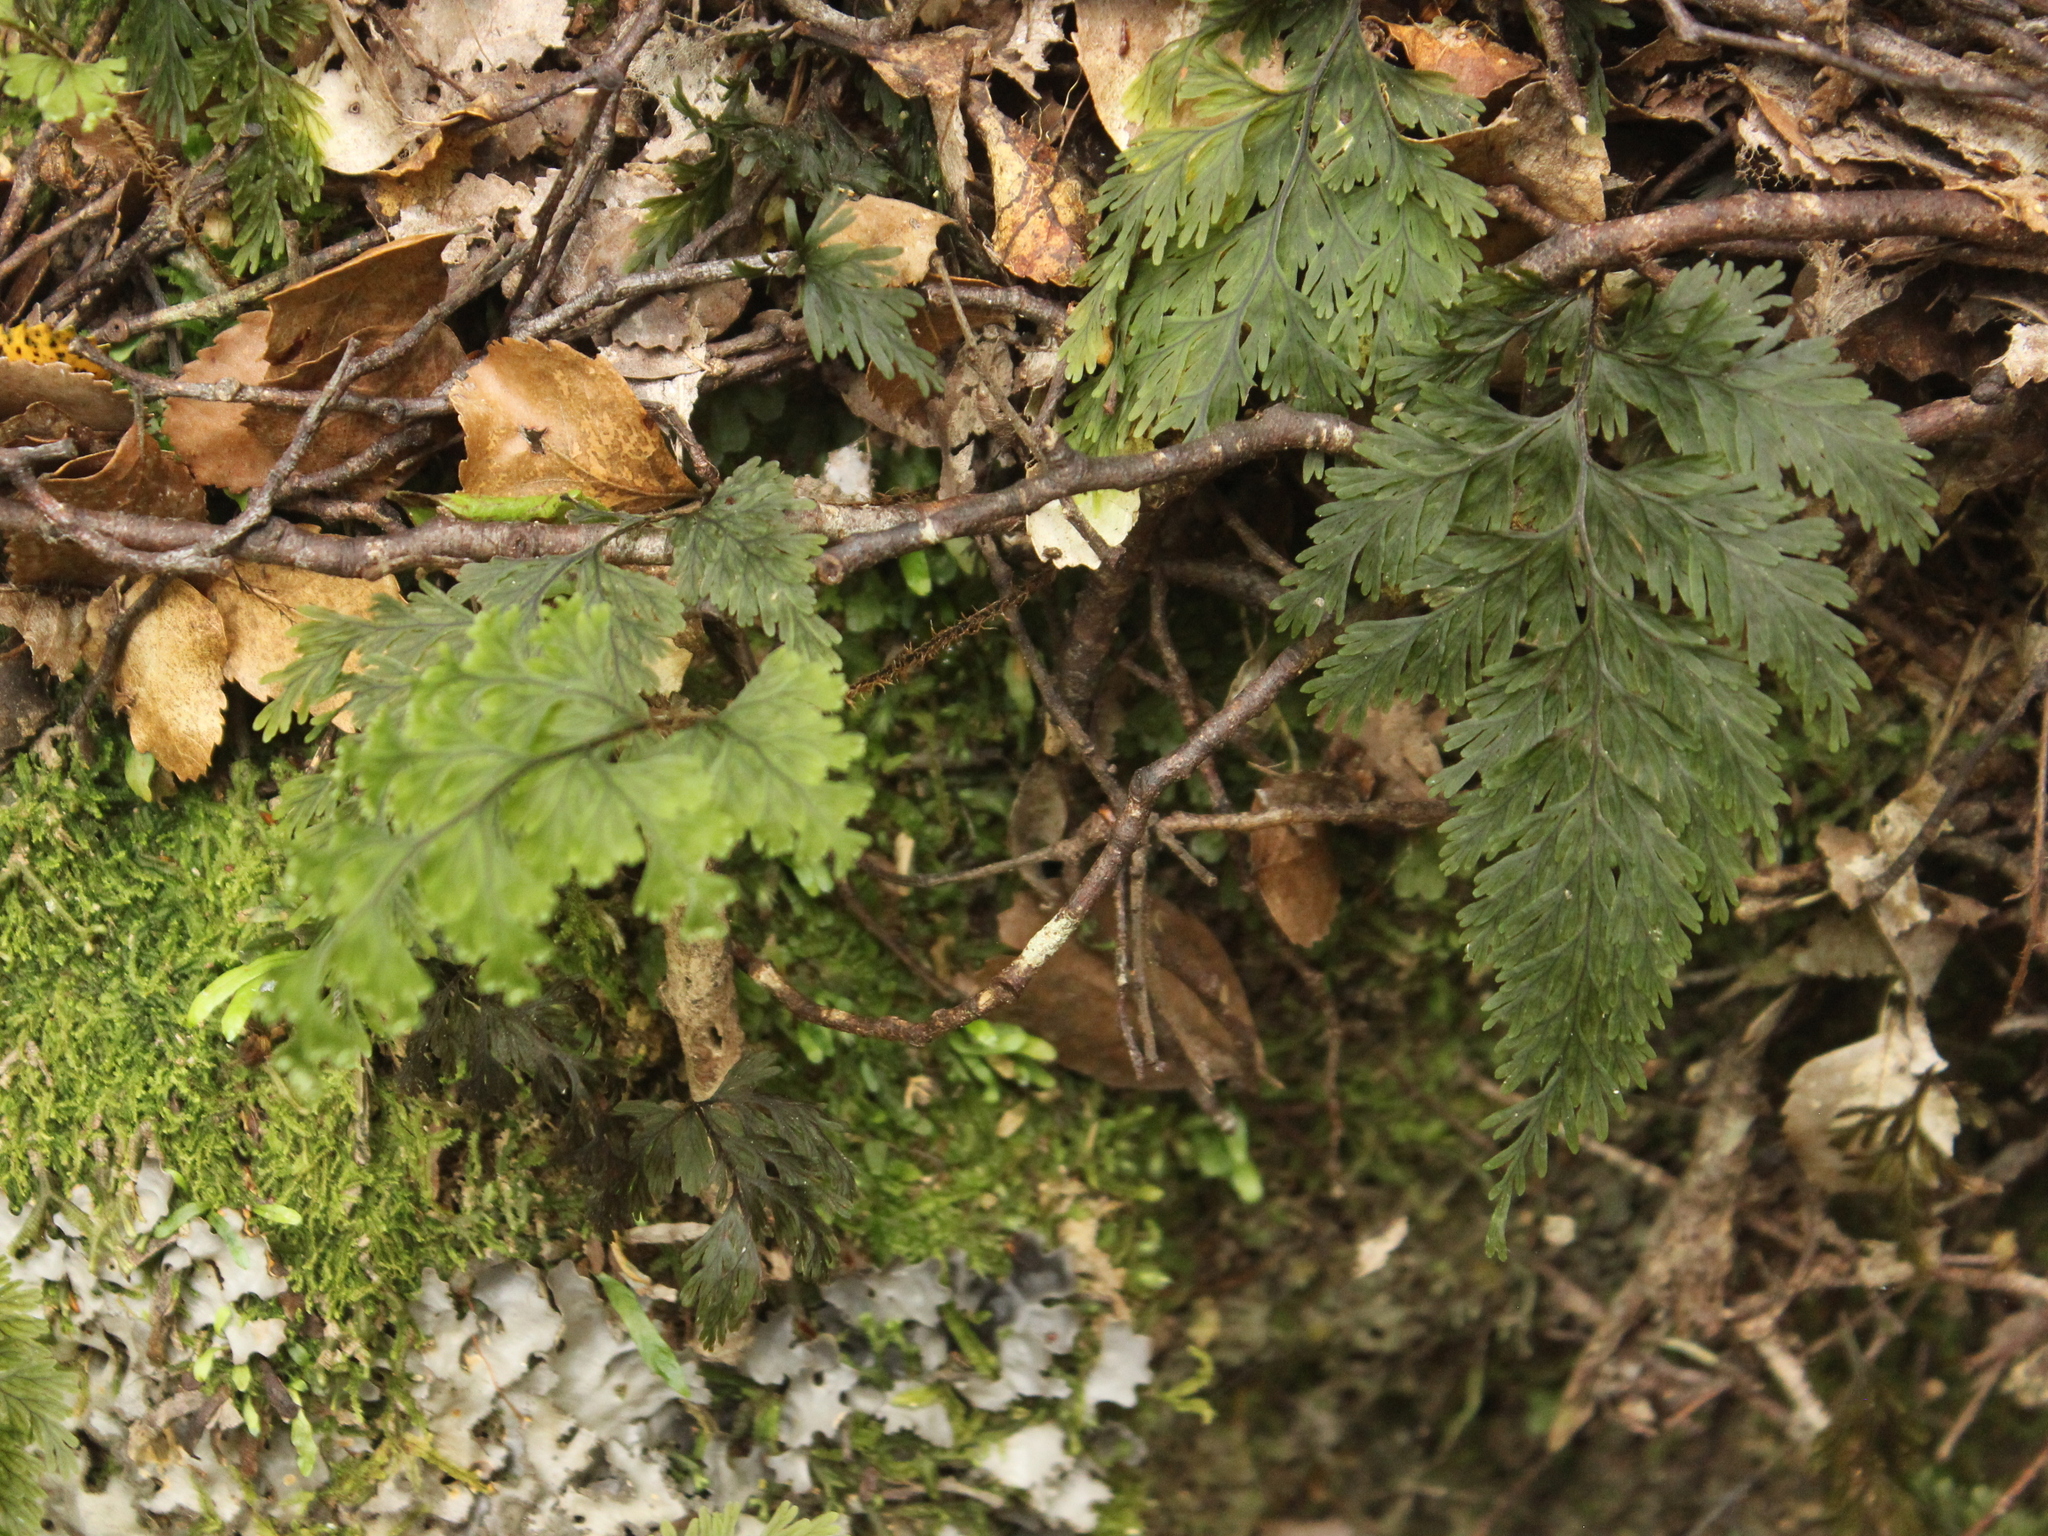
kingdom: Plantae
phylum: Tracheophyta
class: Polypodiopsida
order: Hymenophyllales
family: Hymenophyllaceae
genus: Hymenophyllum
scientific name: Hymenophyllum scabrum
